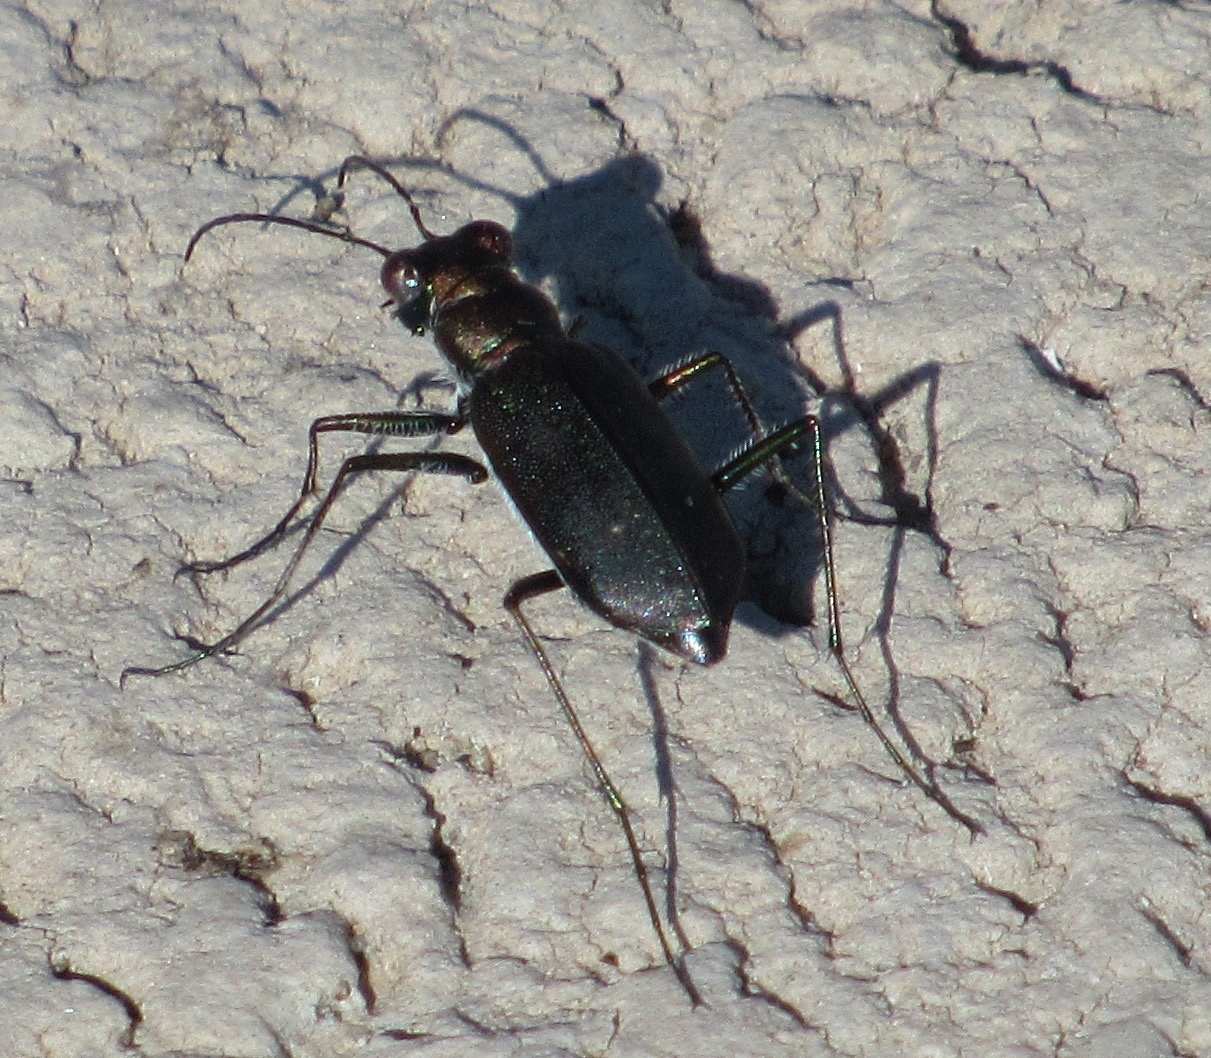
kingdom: Animalia
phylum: Arthropoda
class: Insecta
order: Coleoptera
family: Carabidae
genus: Cicindela
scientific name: Cicindela punctulata
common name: Punctured tiger beetle
